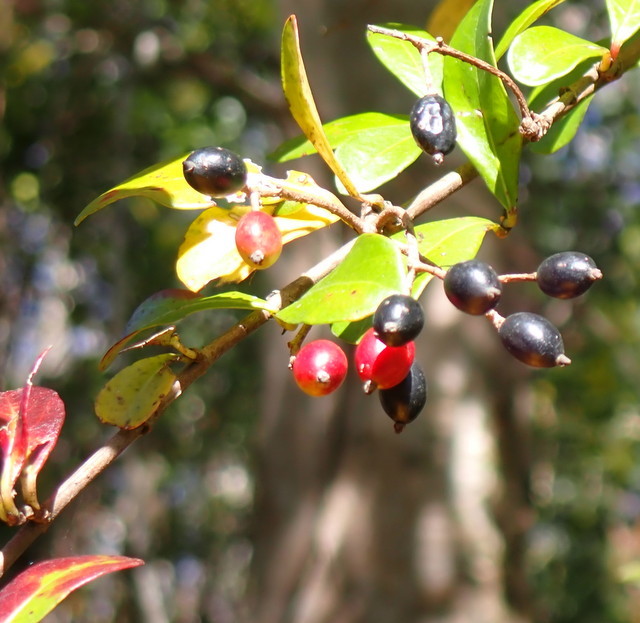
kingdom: Plantae
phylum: Tracheophyta
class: Magnoliopsida
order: Dipsacales
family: Viburnaceae
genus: Viburnum
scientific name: Viburnum obovatum
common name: Walter's viburnum
